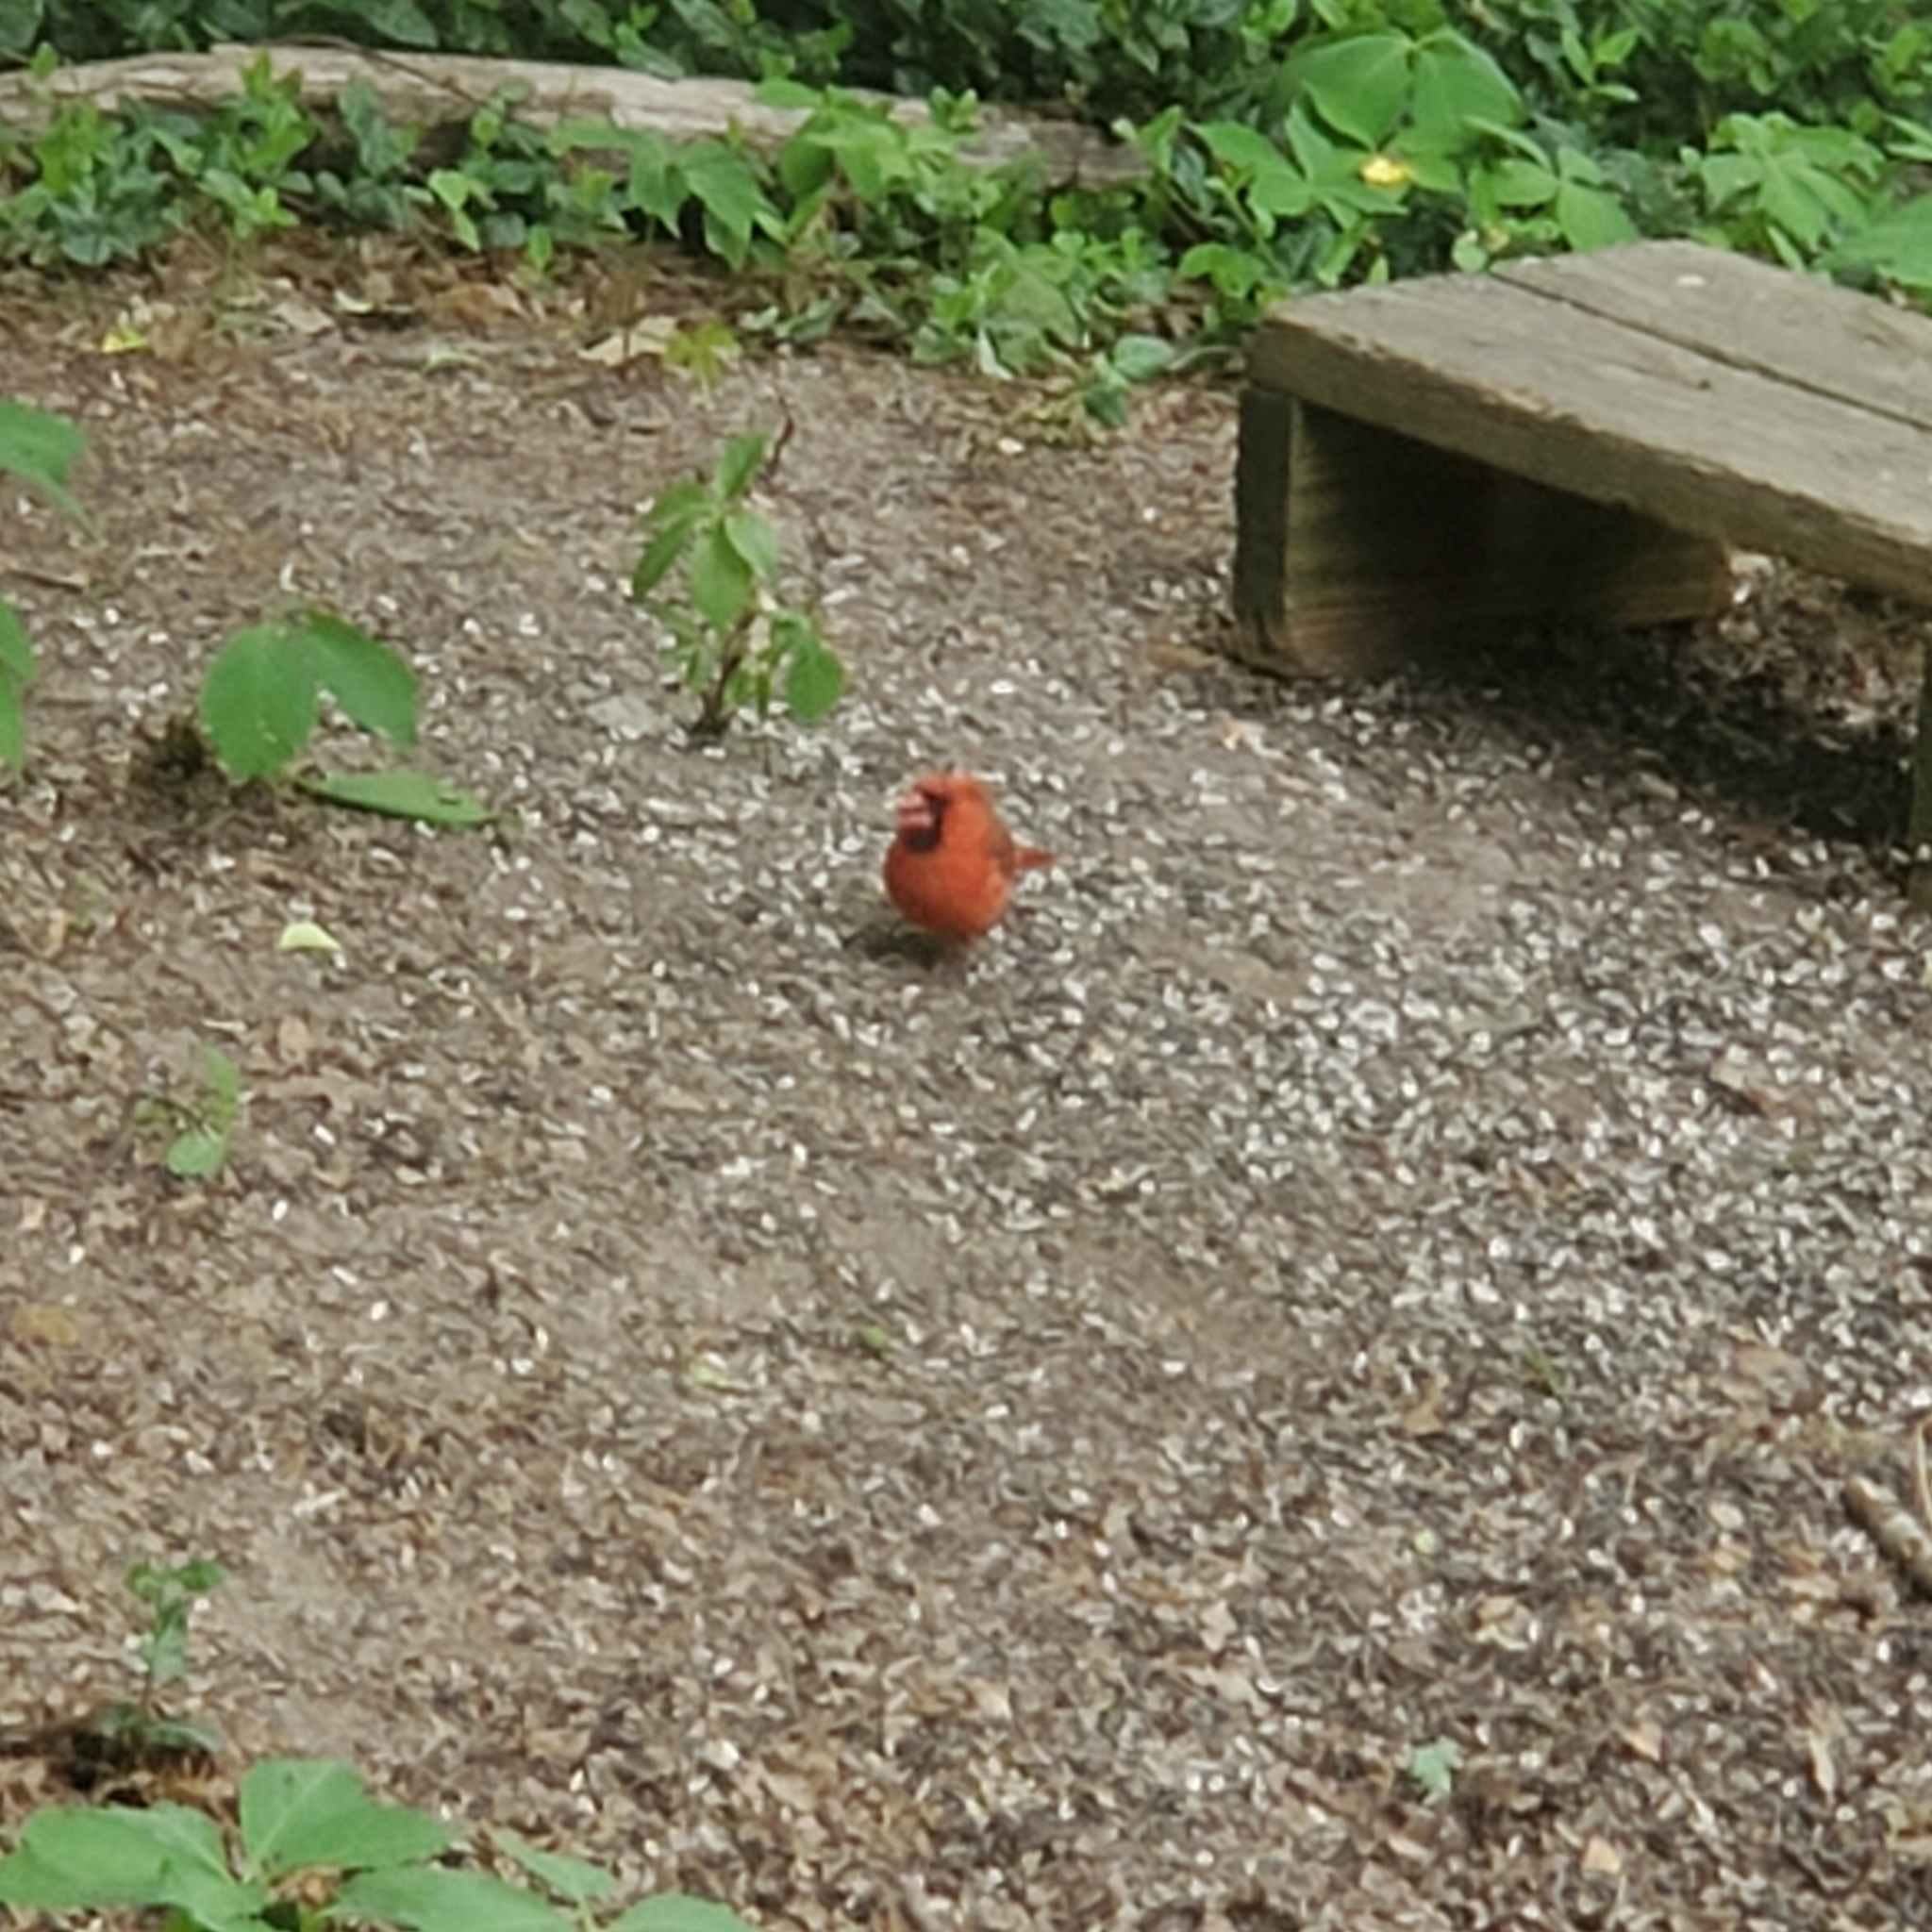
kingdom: Animalia
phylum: Chordata
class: Aves
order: Passeriformes
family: Cardinalidae
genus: Cardinalis
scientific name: Cardinalis cardinalis
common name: Northern cardinal
